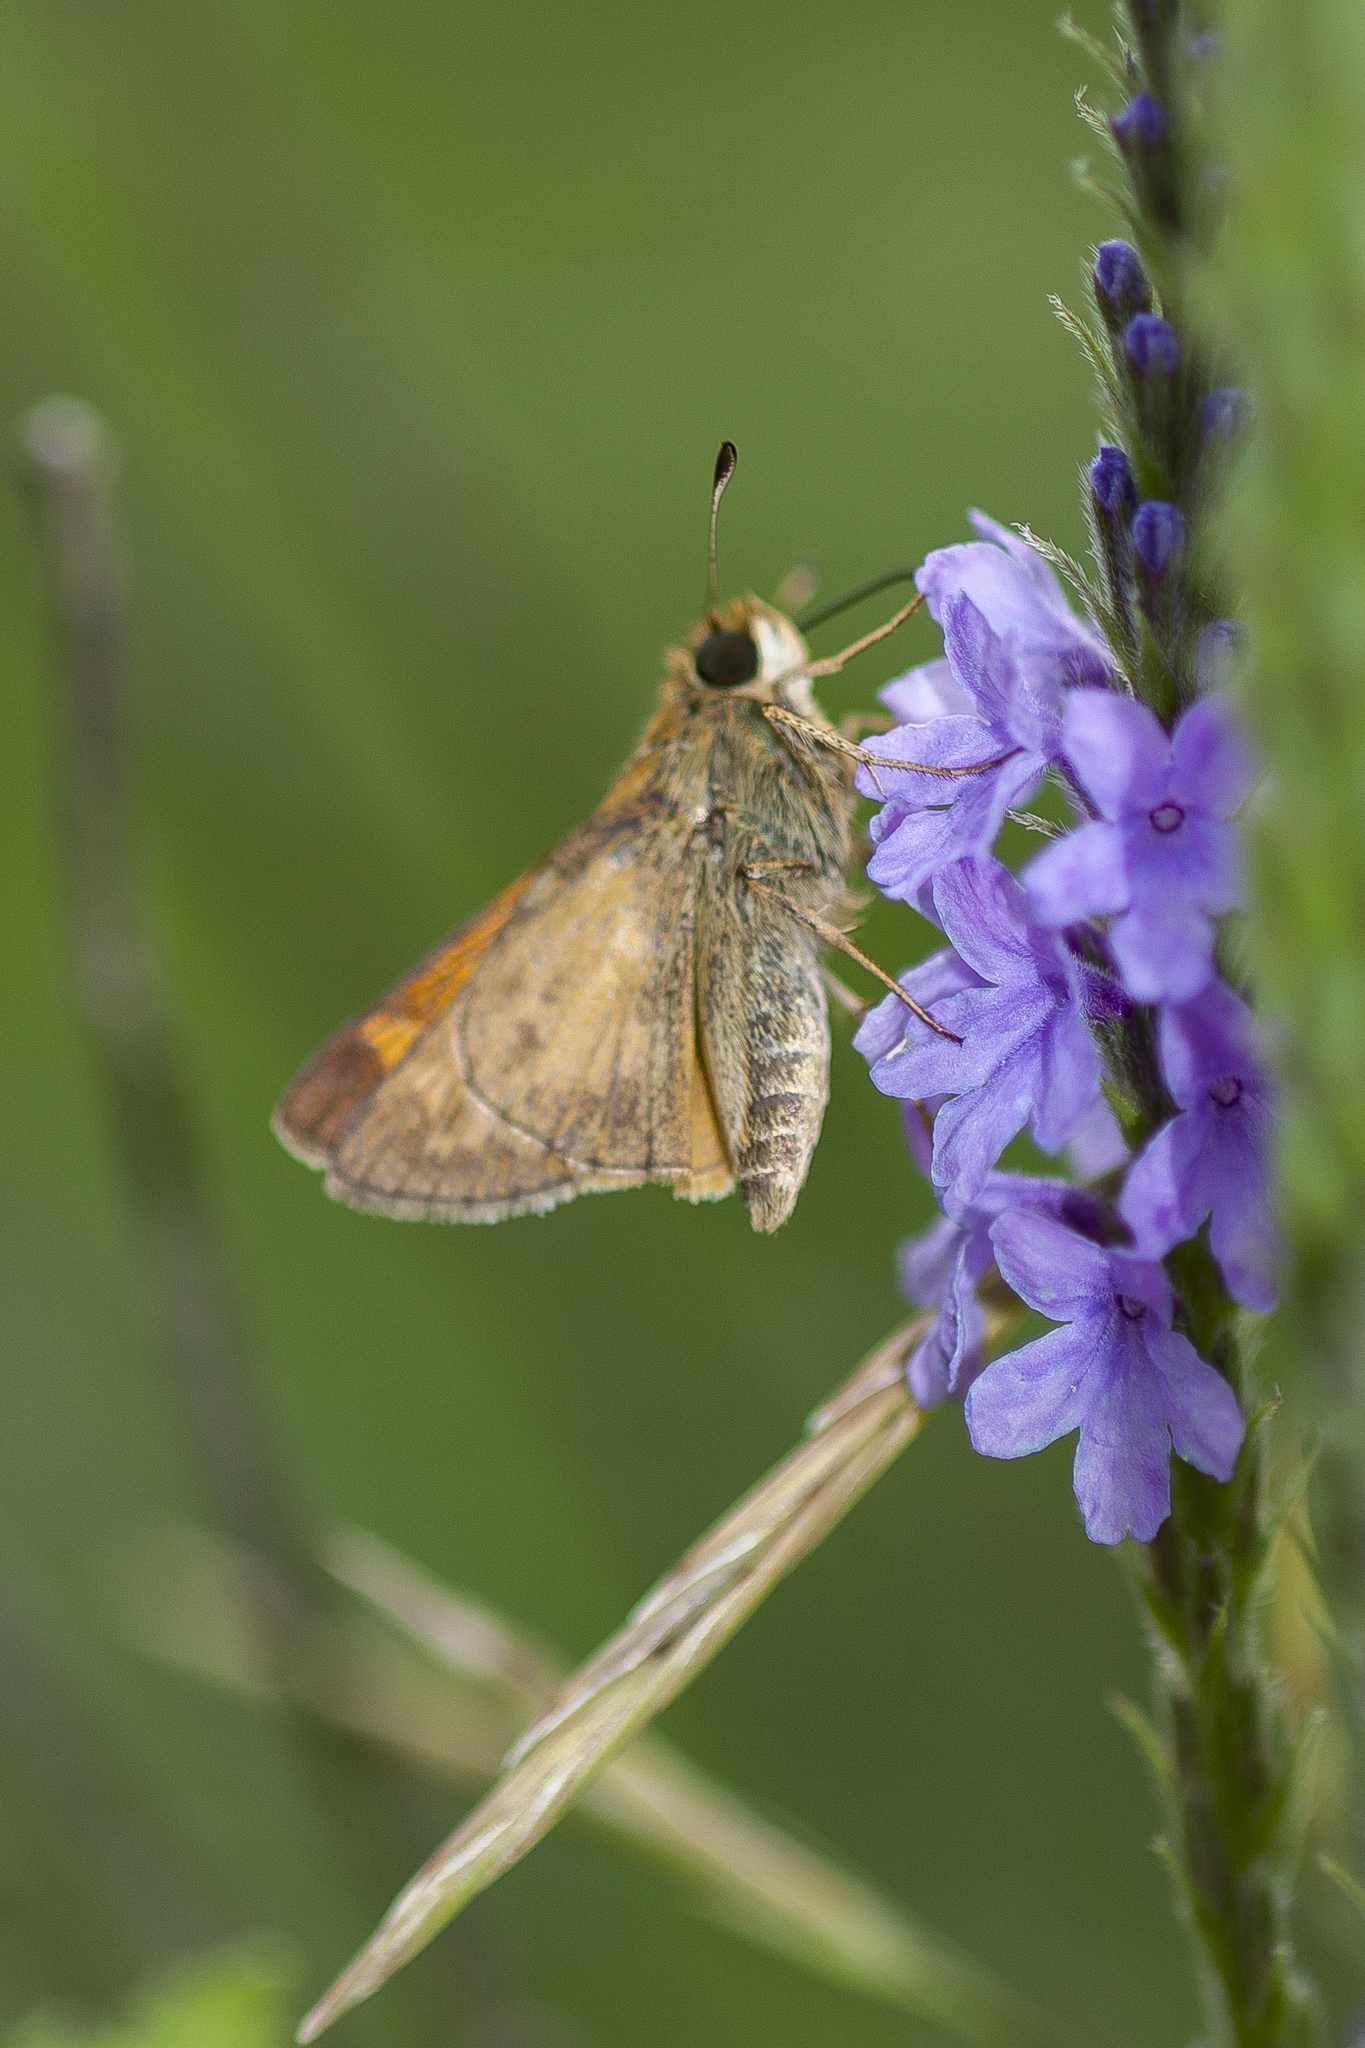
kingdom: Animalia
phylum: Arthropoda
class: Insecta
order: Lepidoptera
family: Hesperiidae
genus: Atalopedes
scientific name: Atalopedes
